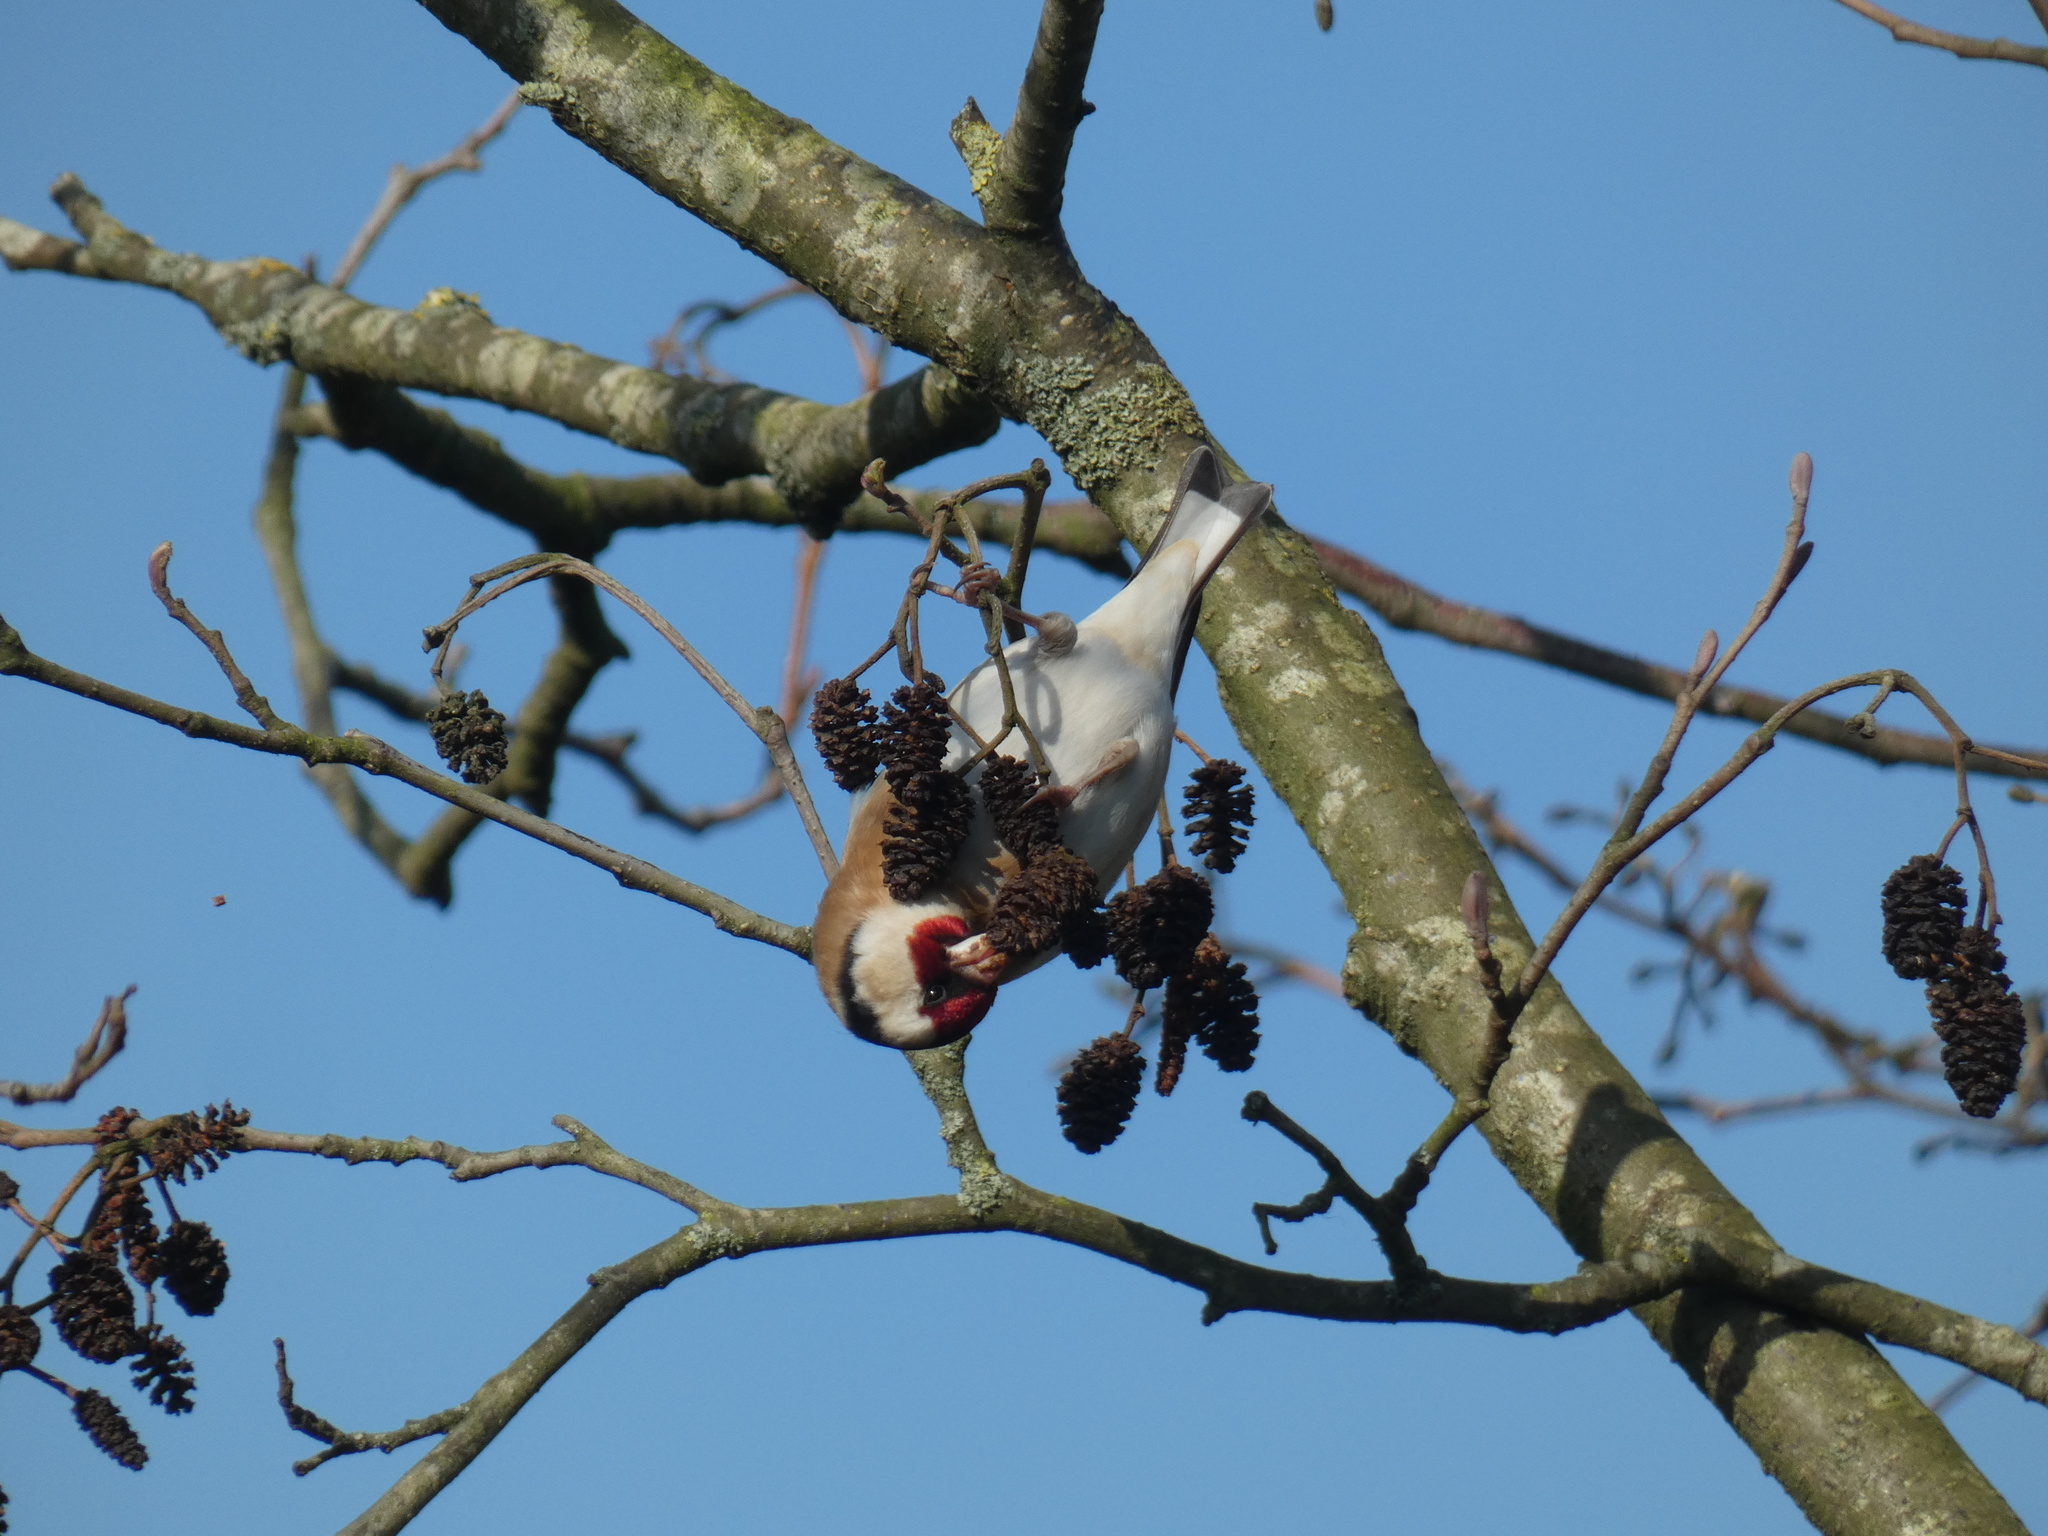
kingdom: Animalia
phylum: Chordata
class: Aves
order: Passeriformes
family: Fringillidae
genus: Carduelis
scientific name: Carduelis carduelis
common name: European goldfinch
